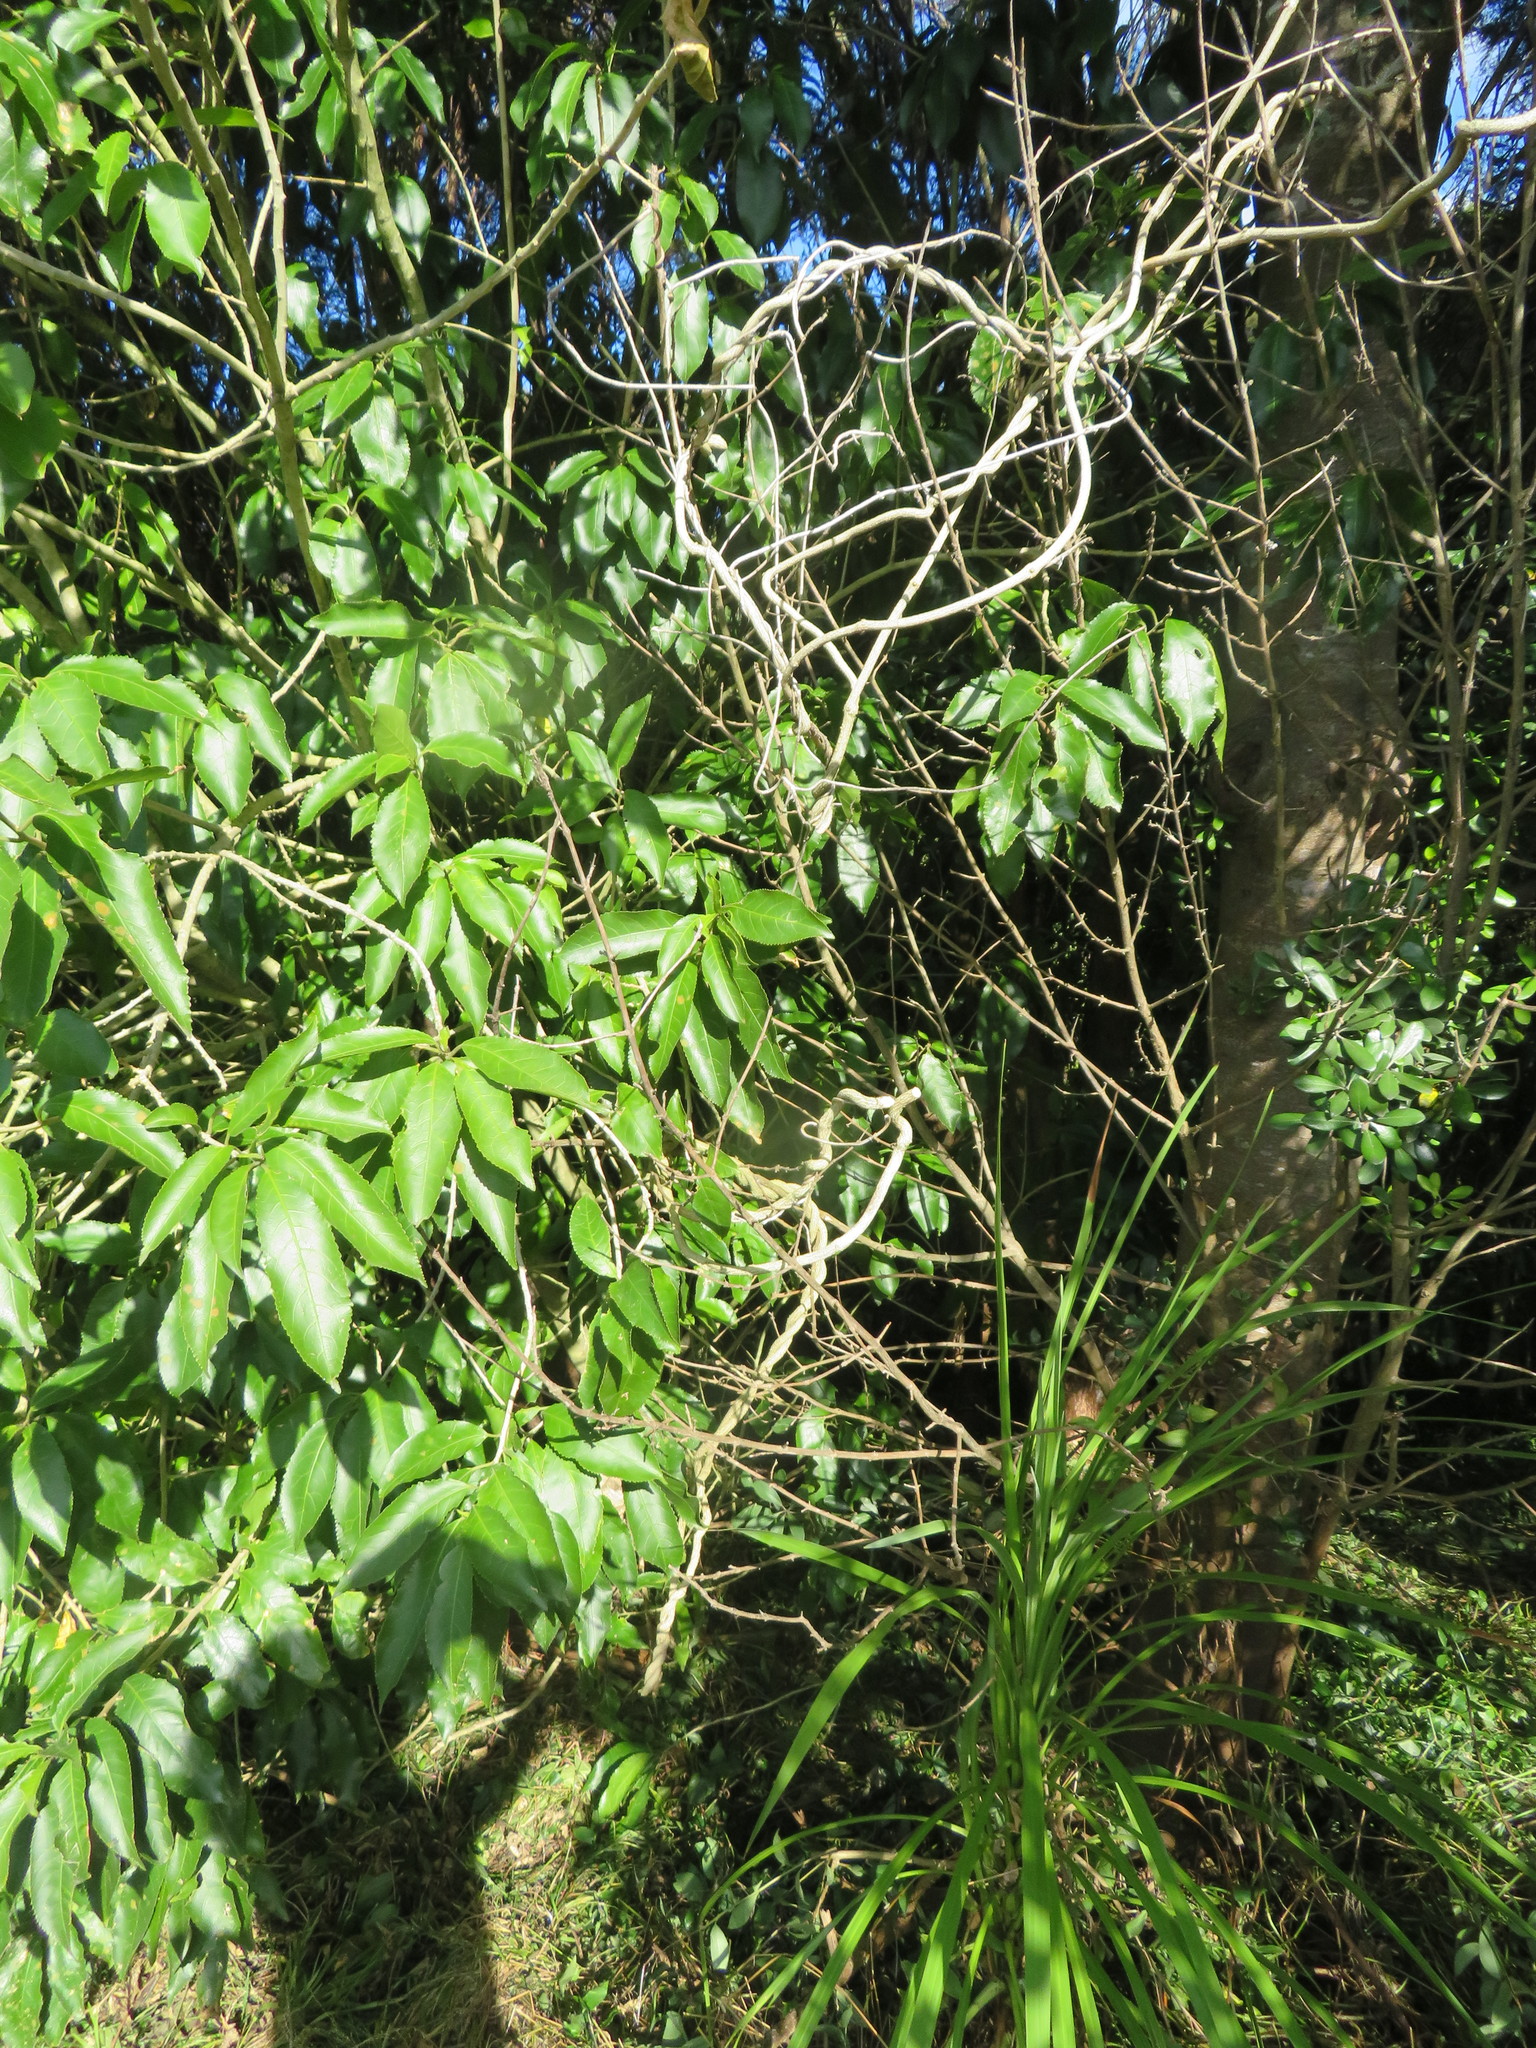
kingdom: Plantae
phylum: Tracheophyta
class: Liliopsida
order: Asparagales
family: Asparagaceae
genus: Cordyline
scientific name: Cordyline australis
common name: Cabbage-palm
